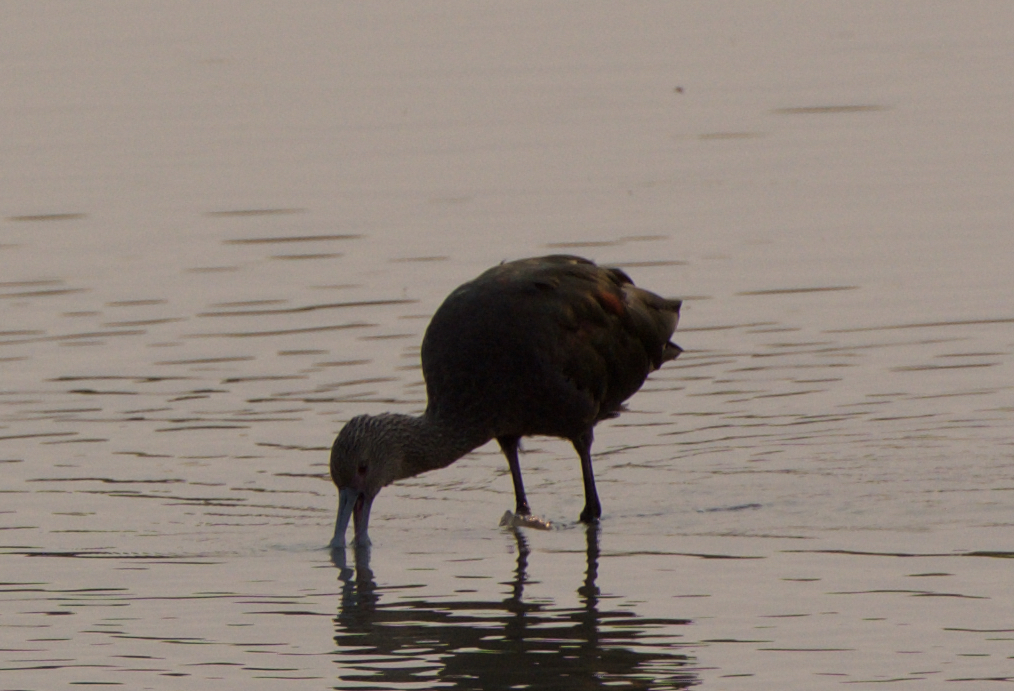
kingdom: Animalia
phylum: Chordata
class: Aves
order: Pelecaniformes
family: Threskiornithidae
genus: Plegadis
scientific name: Plegadis chihi
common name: White-faced ibis
